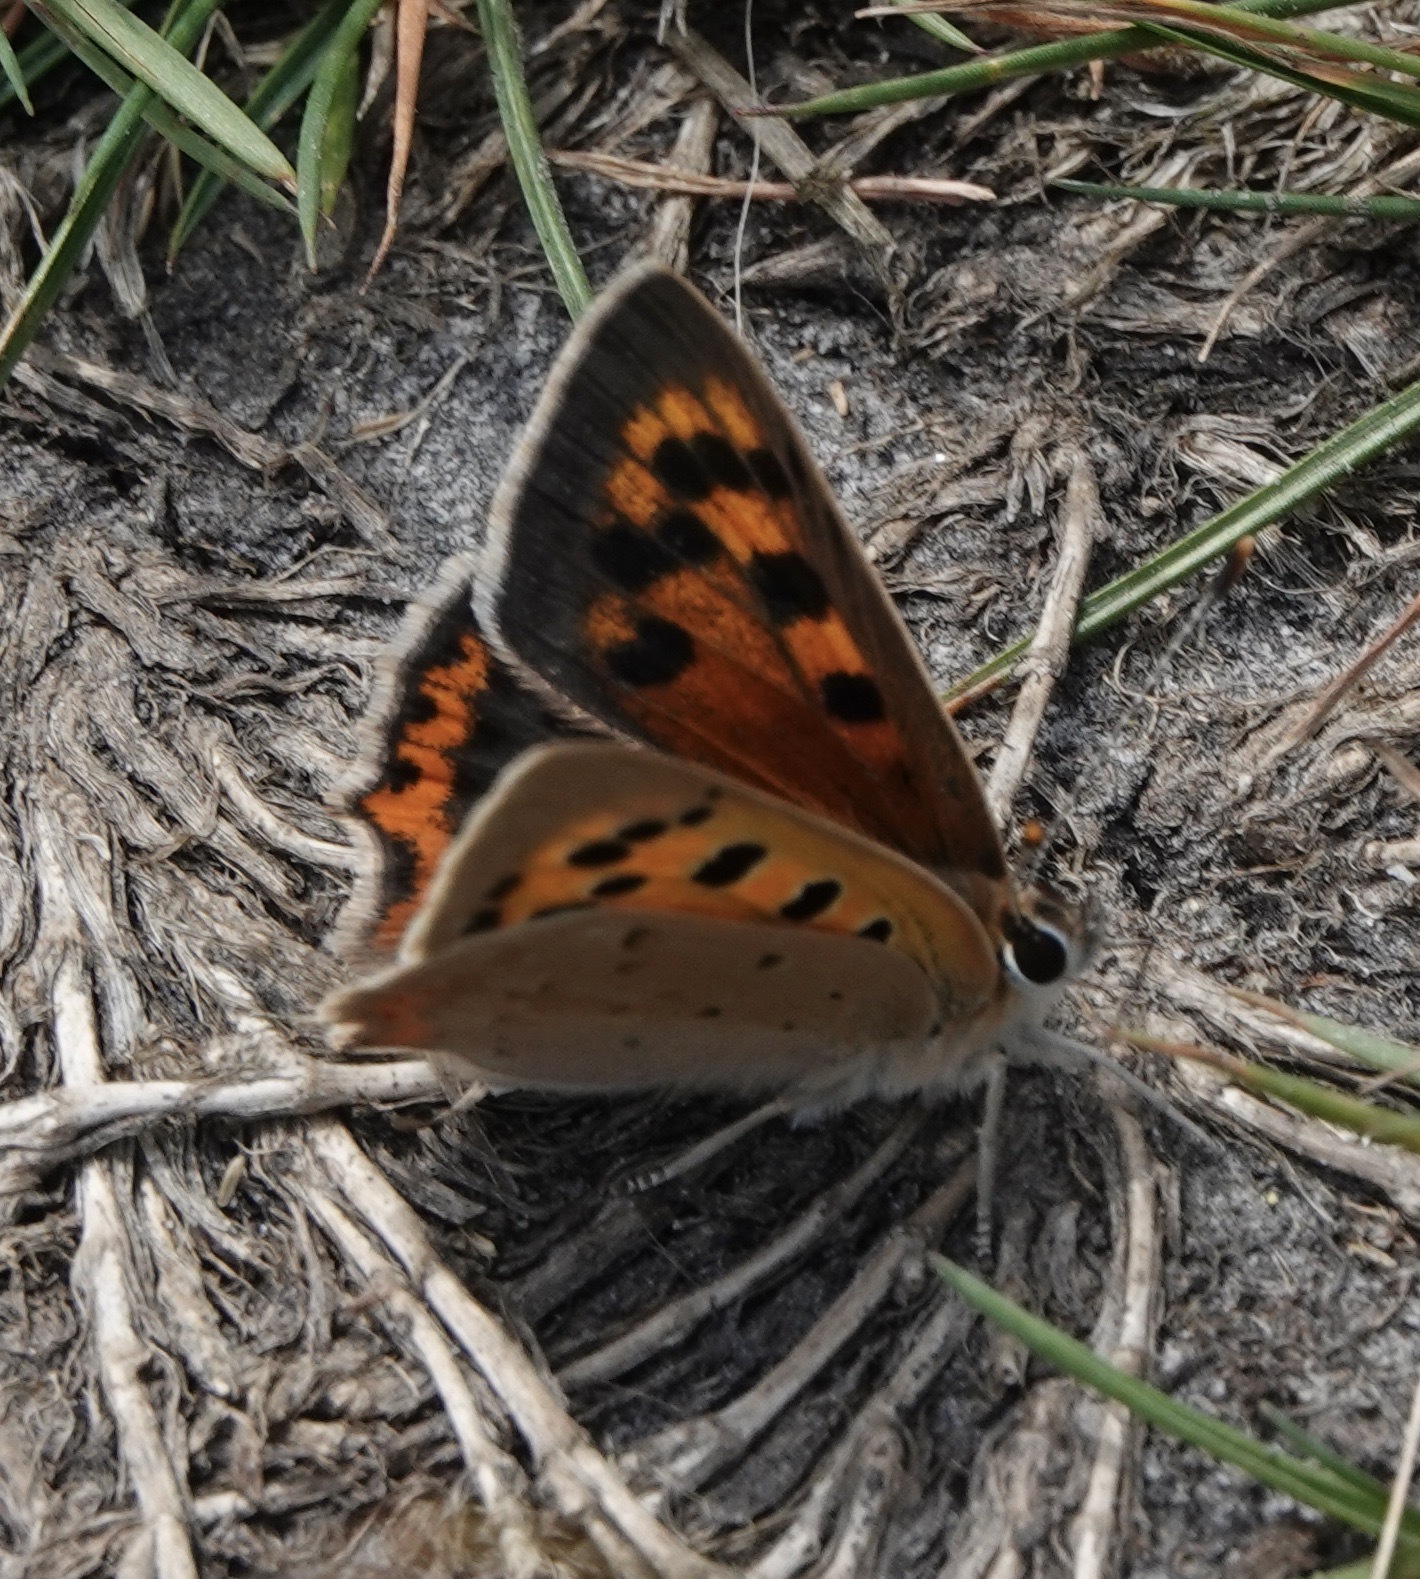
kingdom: Animalia
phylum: Arthropoda
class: Insecta
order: Lepidoptera
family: Lycaenidae
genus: Lycaena
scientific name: Lycaena phlaeas
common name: Small copper
